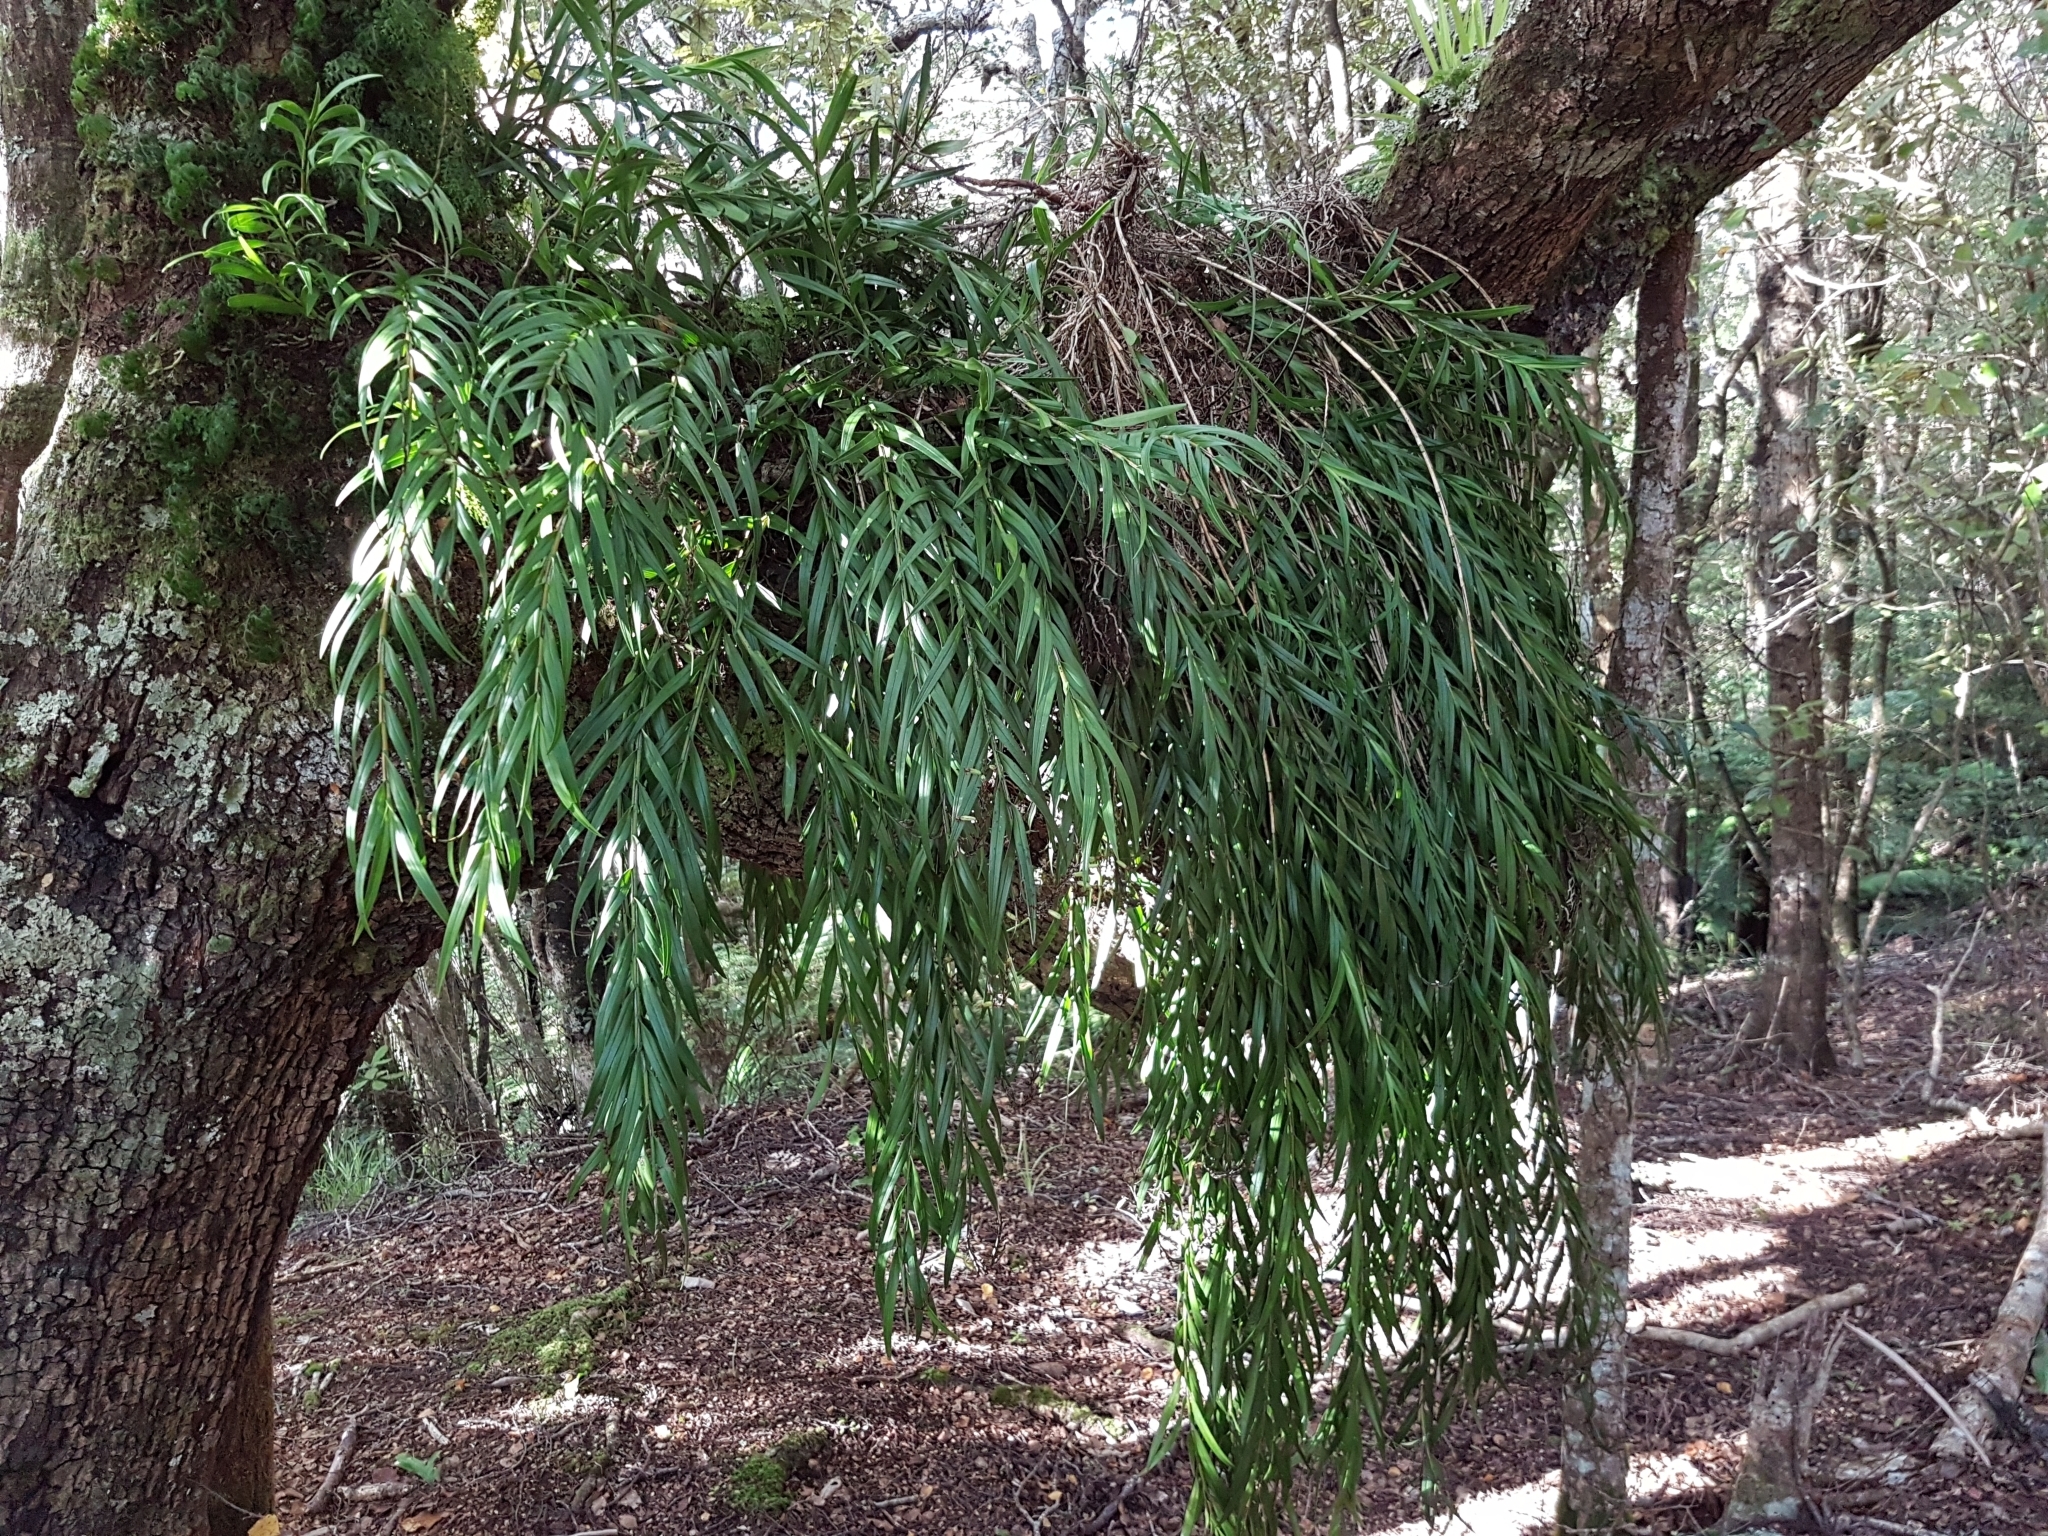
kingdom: Plantae
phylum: Tracheophyta
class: Liliopsida
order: Asparagales
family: Orchidaceae
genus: Earina
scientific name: Earina autumnalis
